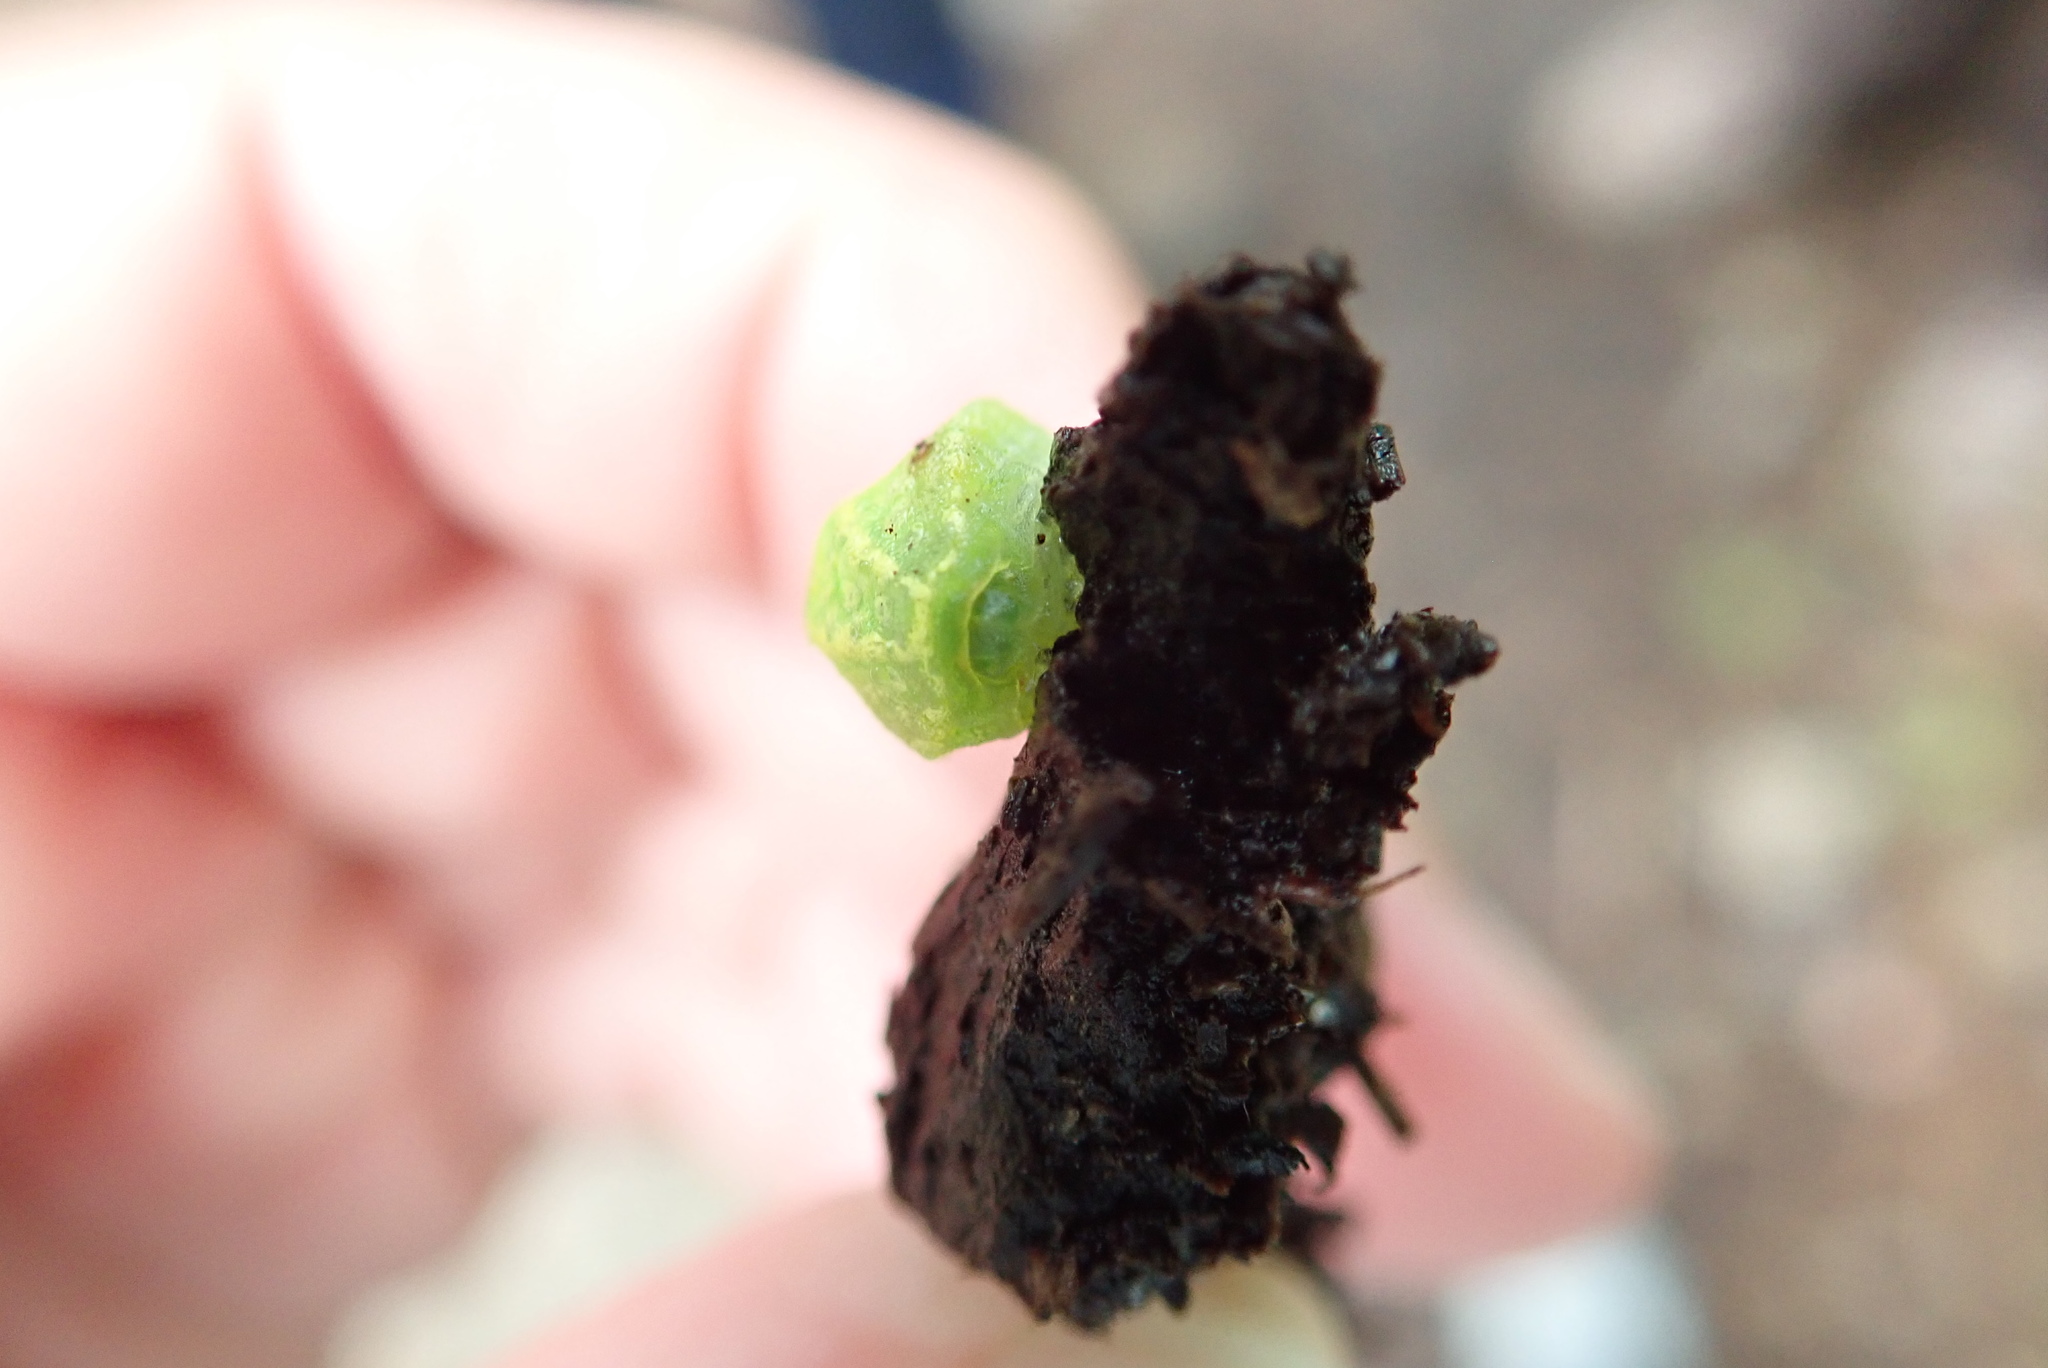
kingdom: Animalia
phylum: Arthropoda
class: Insecta
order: Lepidoptera
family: Limacodidae
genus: Lithacodes
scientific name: Lithacodes fasciola
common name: Yellow-shouldered slug moth
